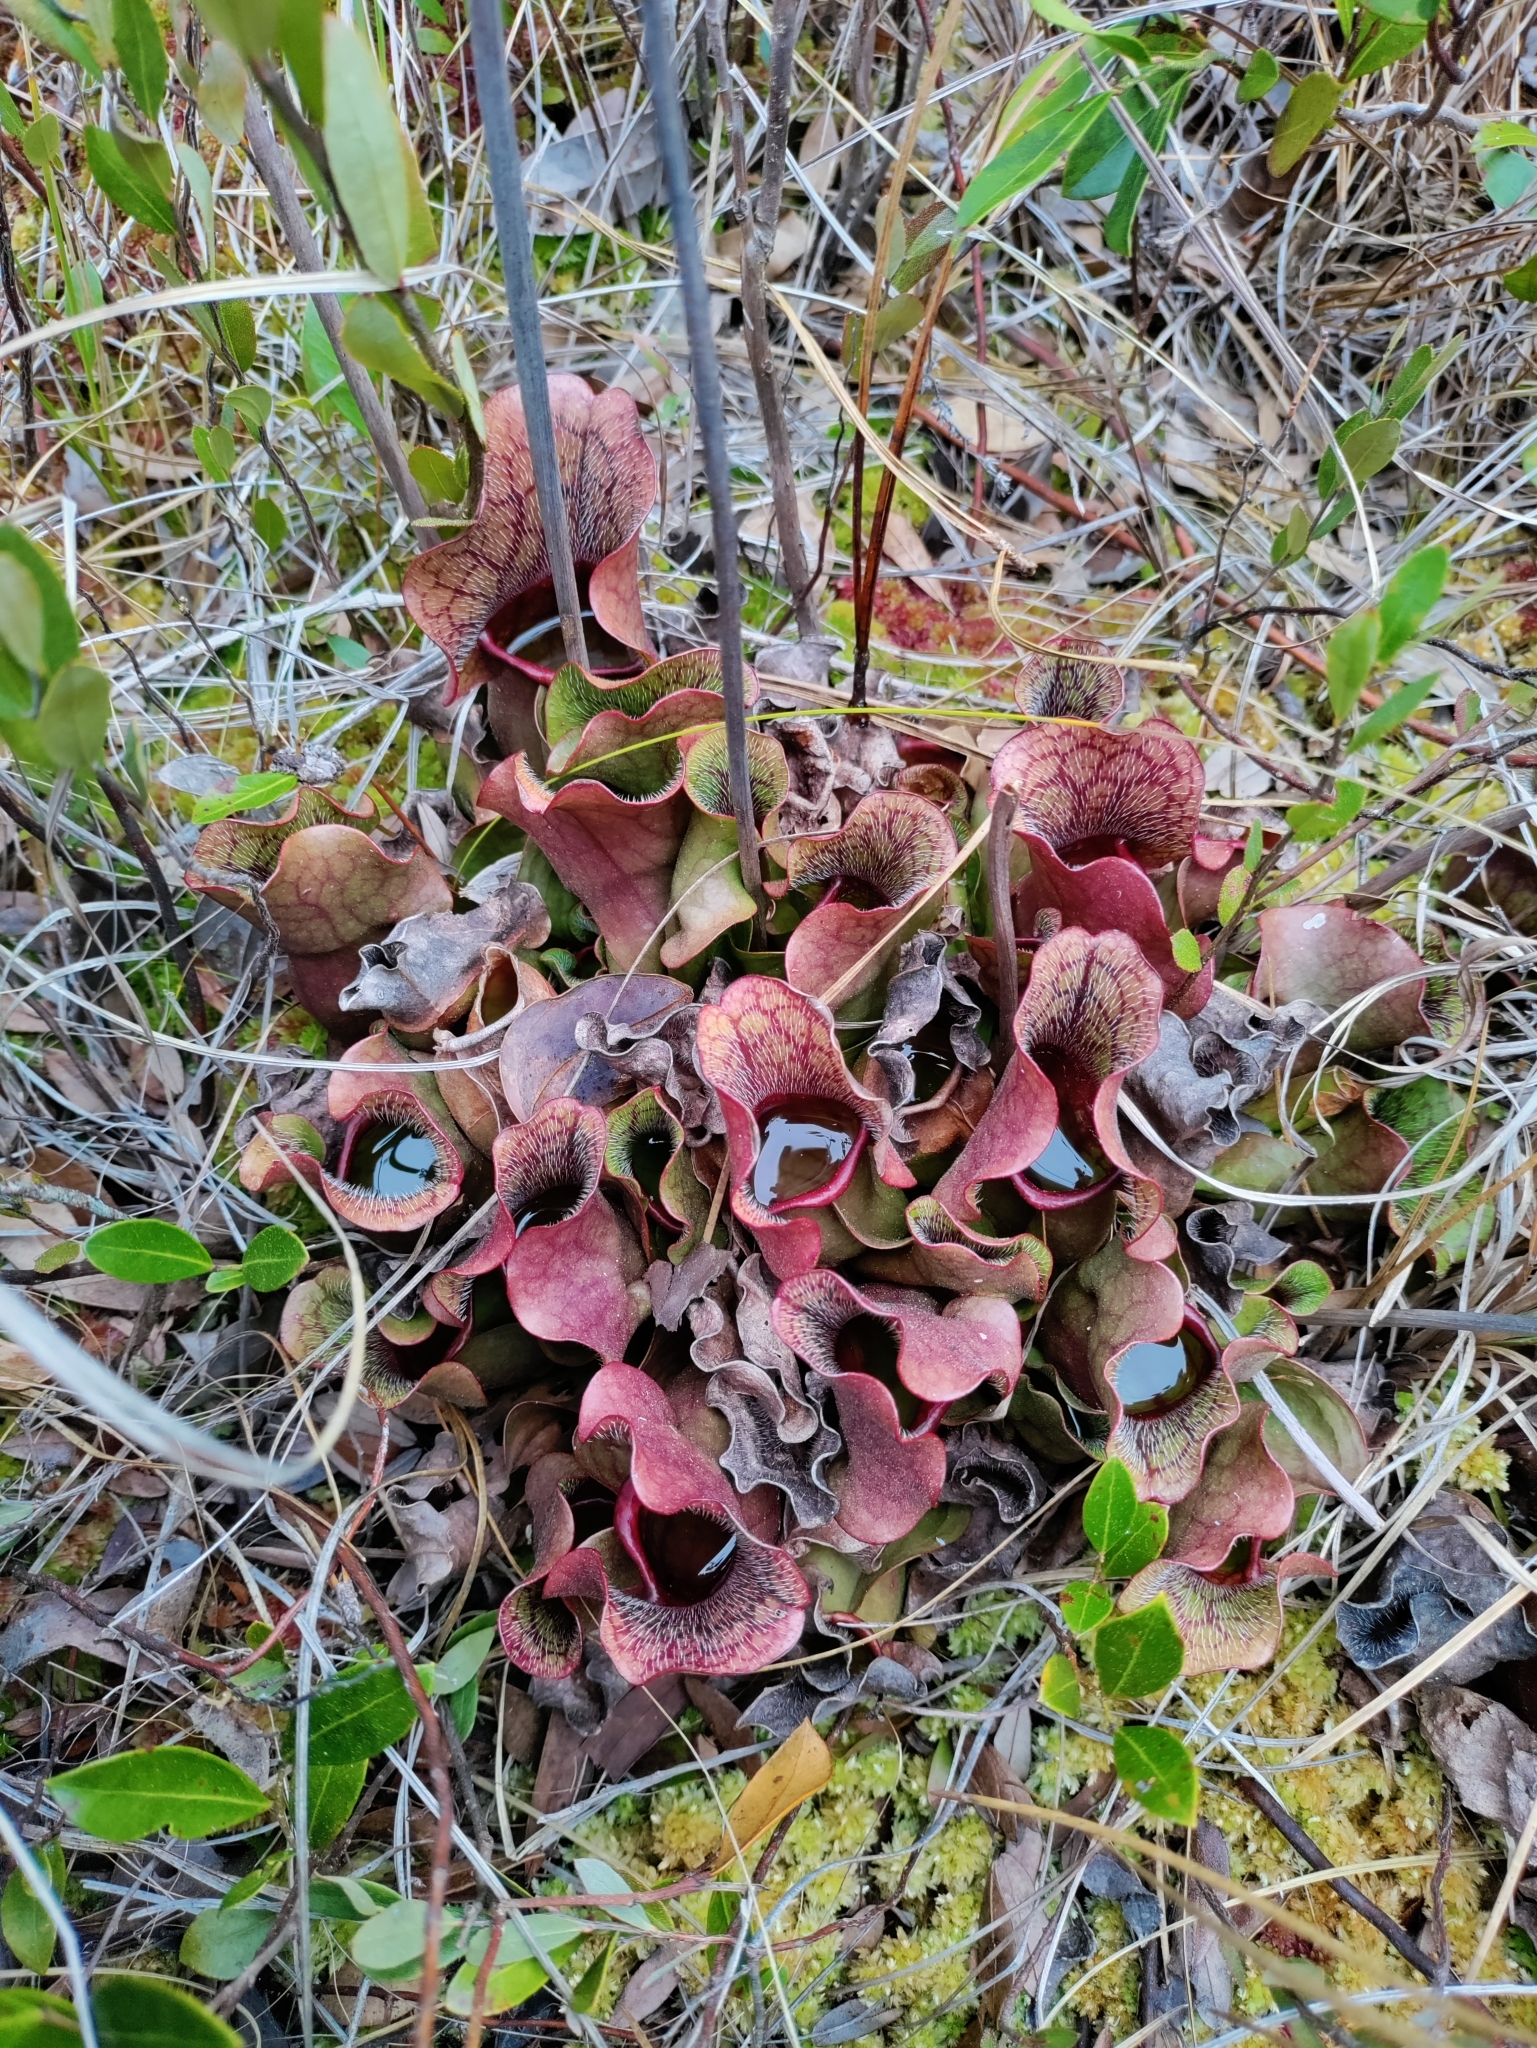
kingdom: Plantae
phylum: Tracheophyta
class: Magnoliopsida
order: Ericales
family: Sarraceniaceae
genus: Sarracenia
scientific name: Sarracenia purpurea
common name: Pitcherplant
